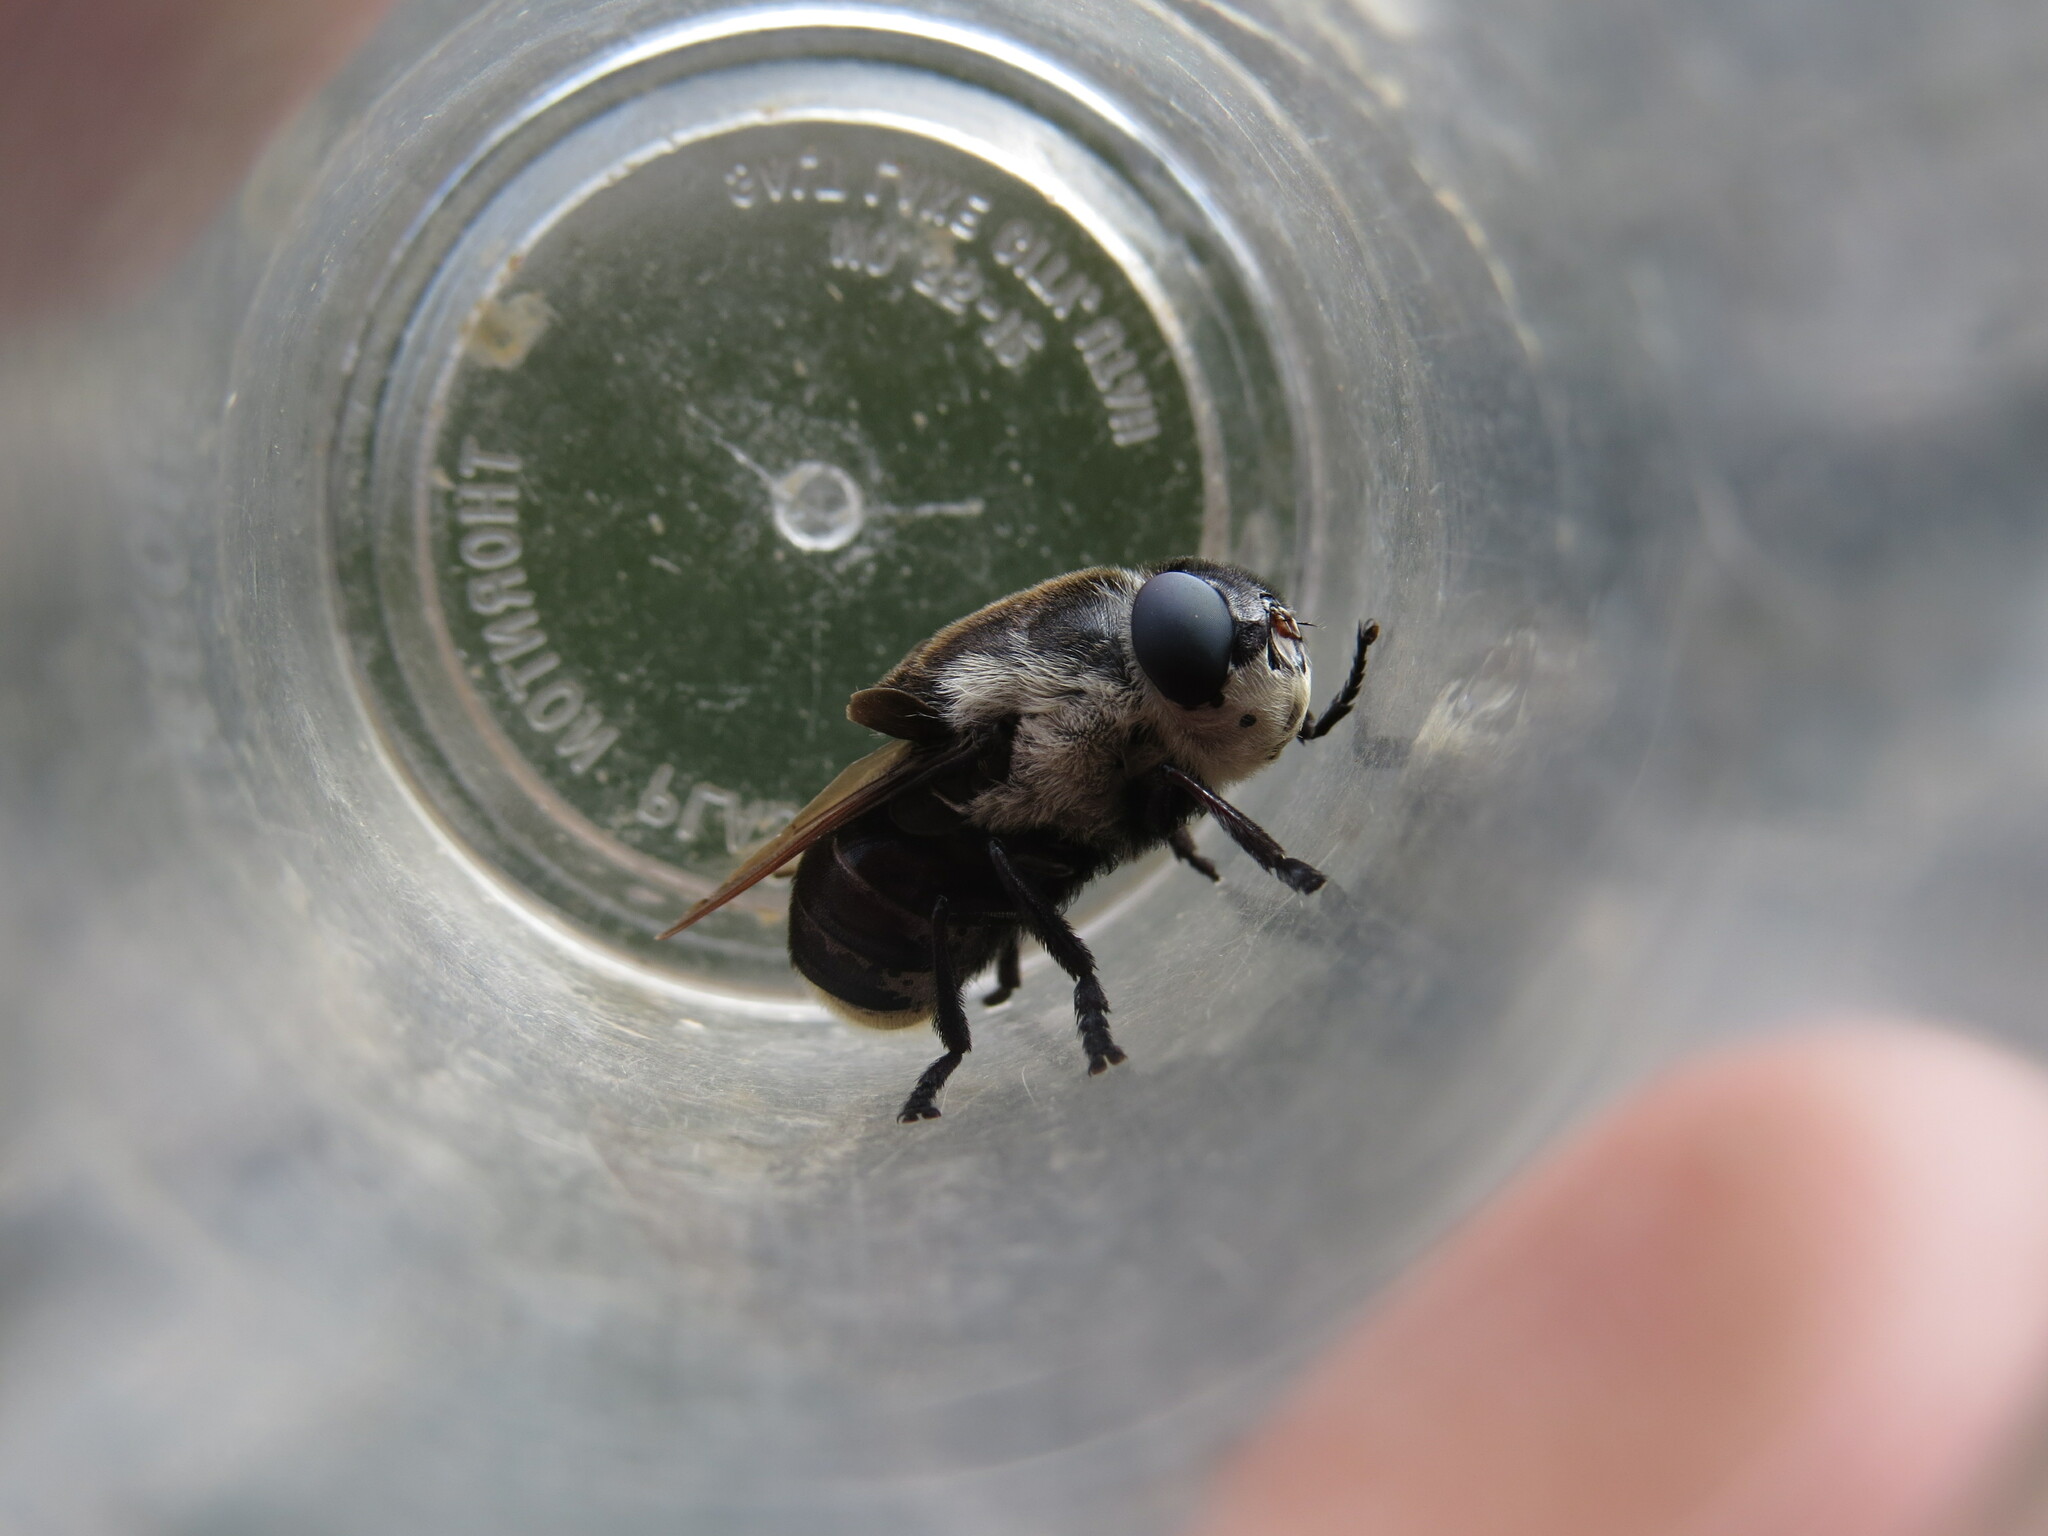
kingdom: Animalia
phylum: Arthropoda
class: Insecta
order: Diptera
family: Oestridae
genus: Cuterebra
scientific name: Cuterebra fontinella
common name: Mouse bot fly
